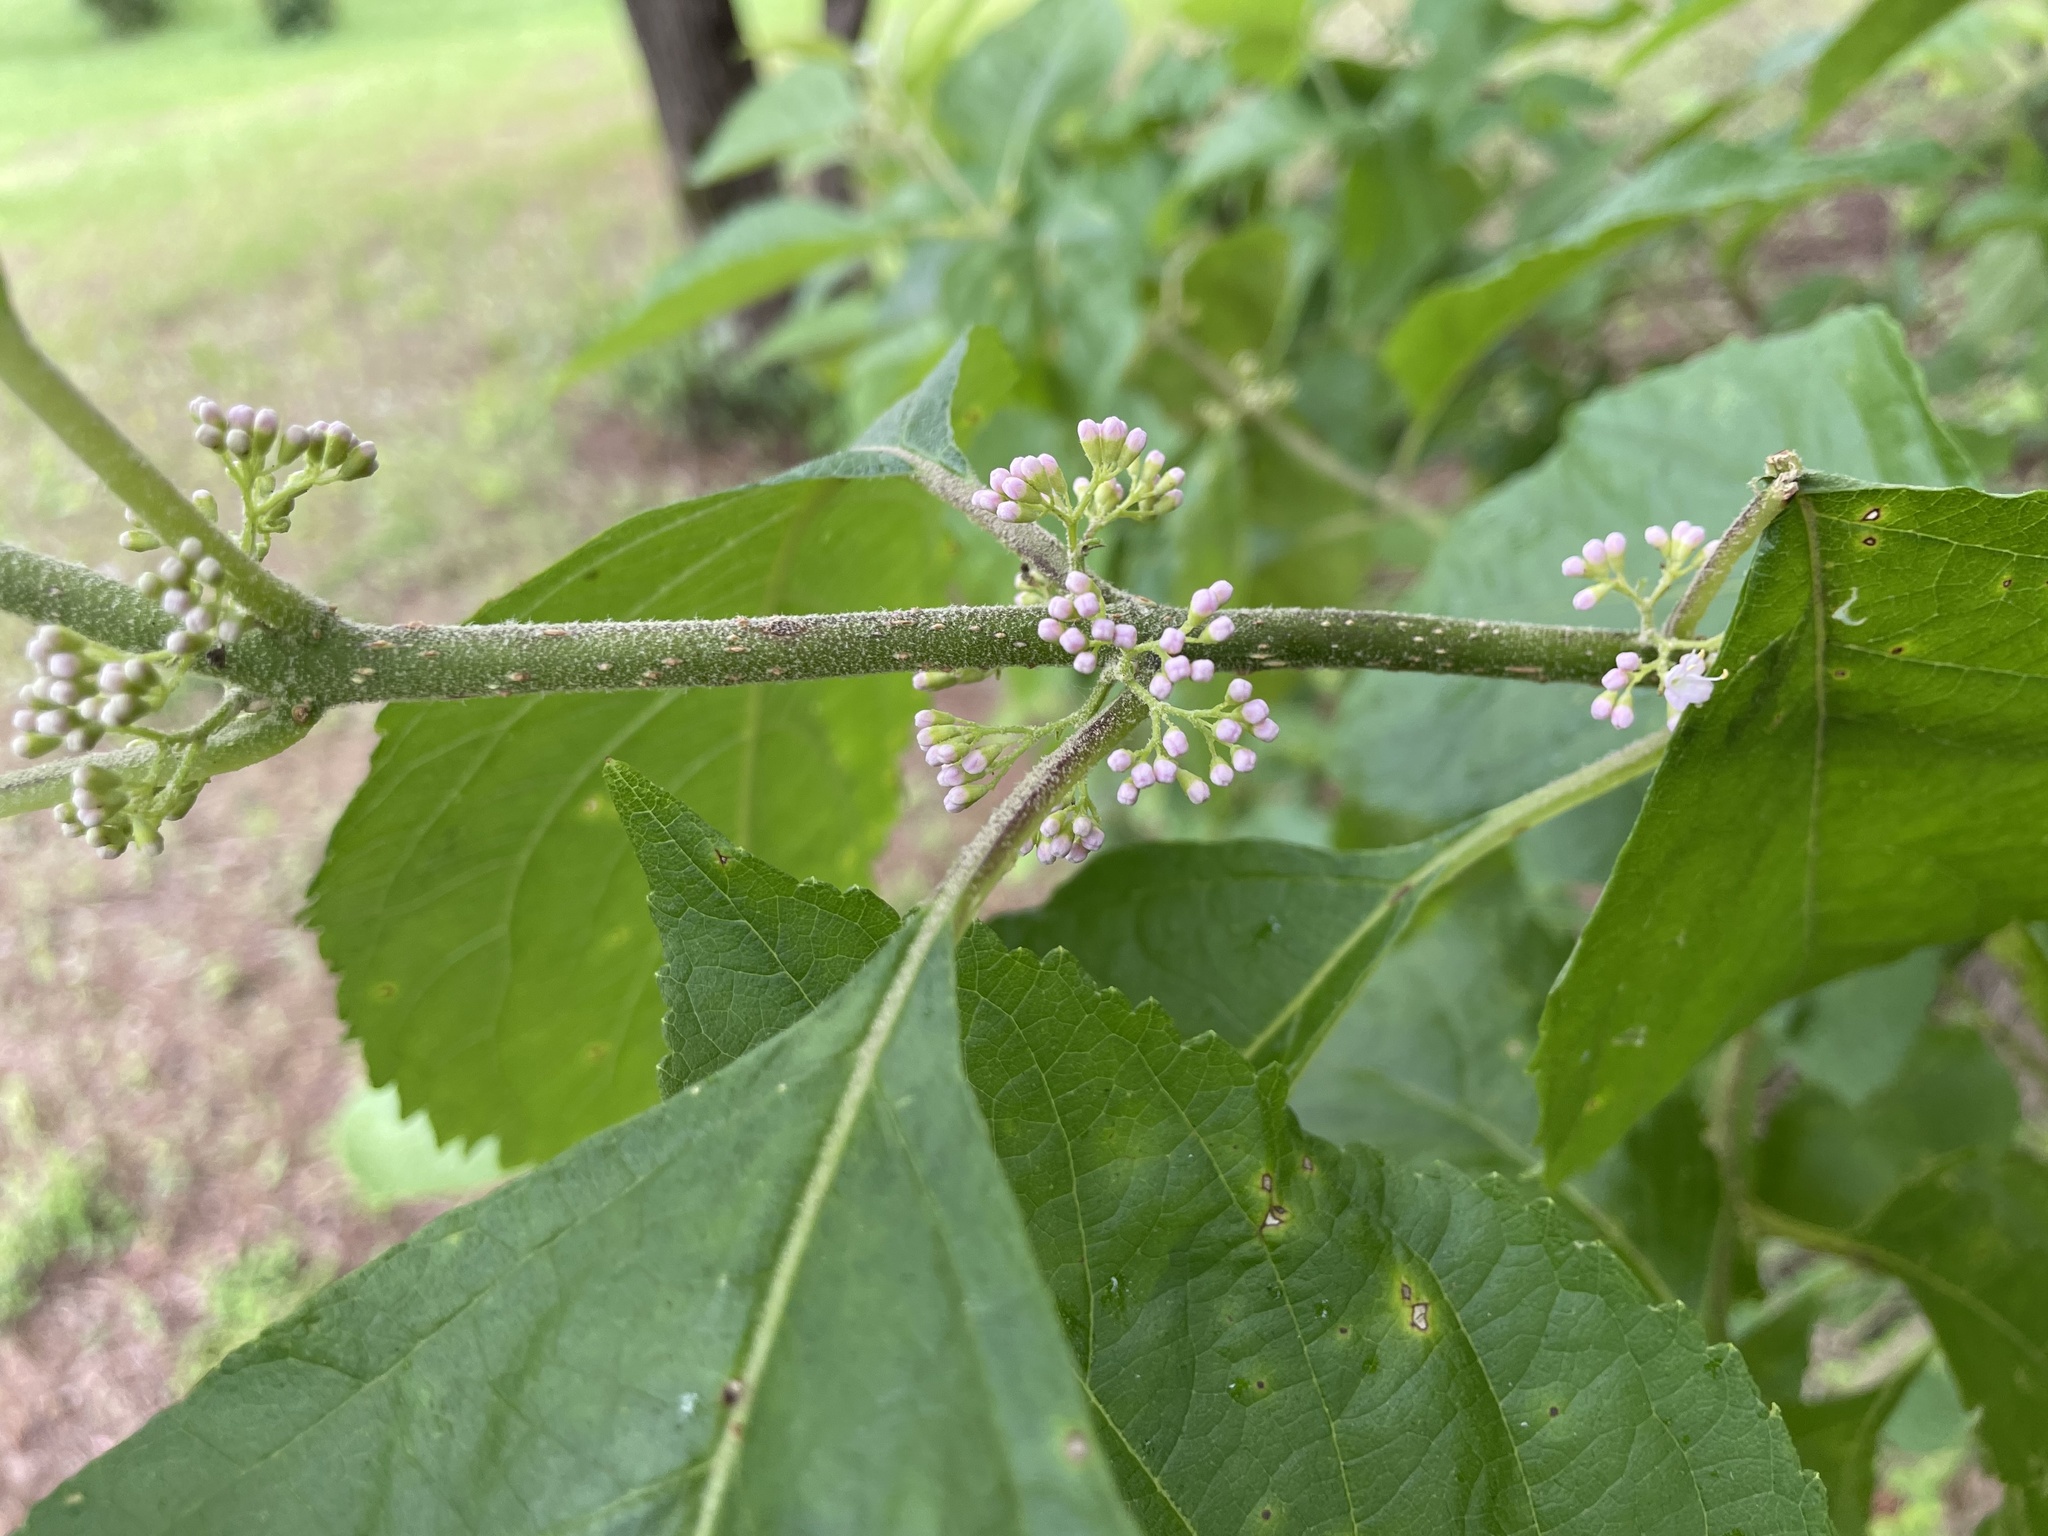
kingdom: Plantae
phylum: Tracheophyta
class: Magnoliopsida
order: Lamiales
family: Lamiaceae
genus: Callicarpa
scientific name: Callicarpa americana
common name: American beautyberry
